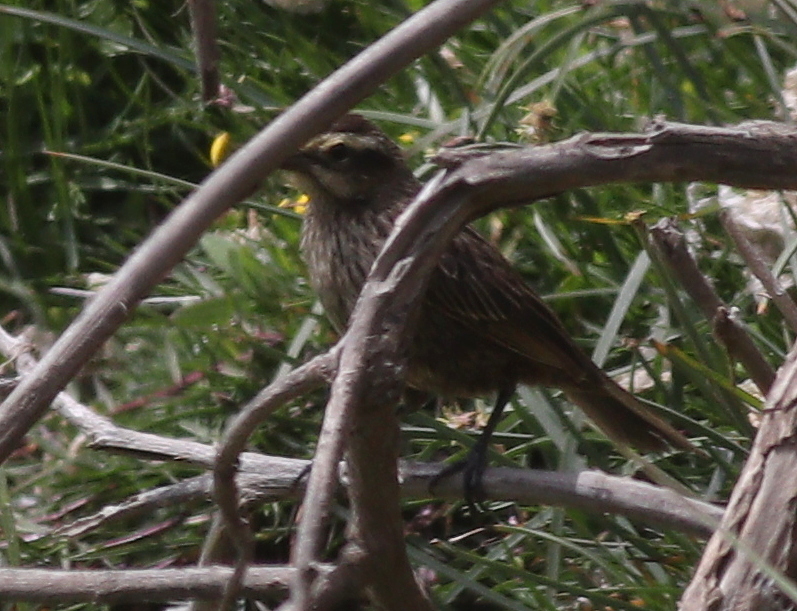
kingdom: Animalia
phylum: Chordata
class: Aves
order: Passeriformes
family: Icteridae
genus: Agelasticus
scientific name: Agelasticus thilius
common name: Yellow-winged blackbird
